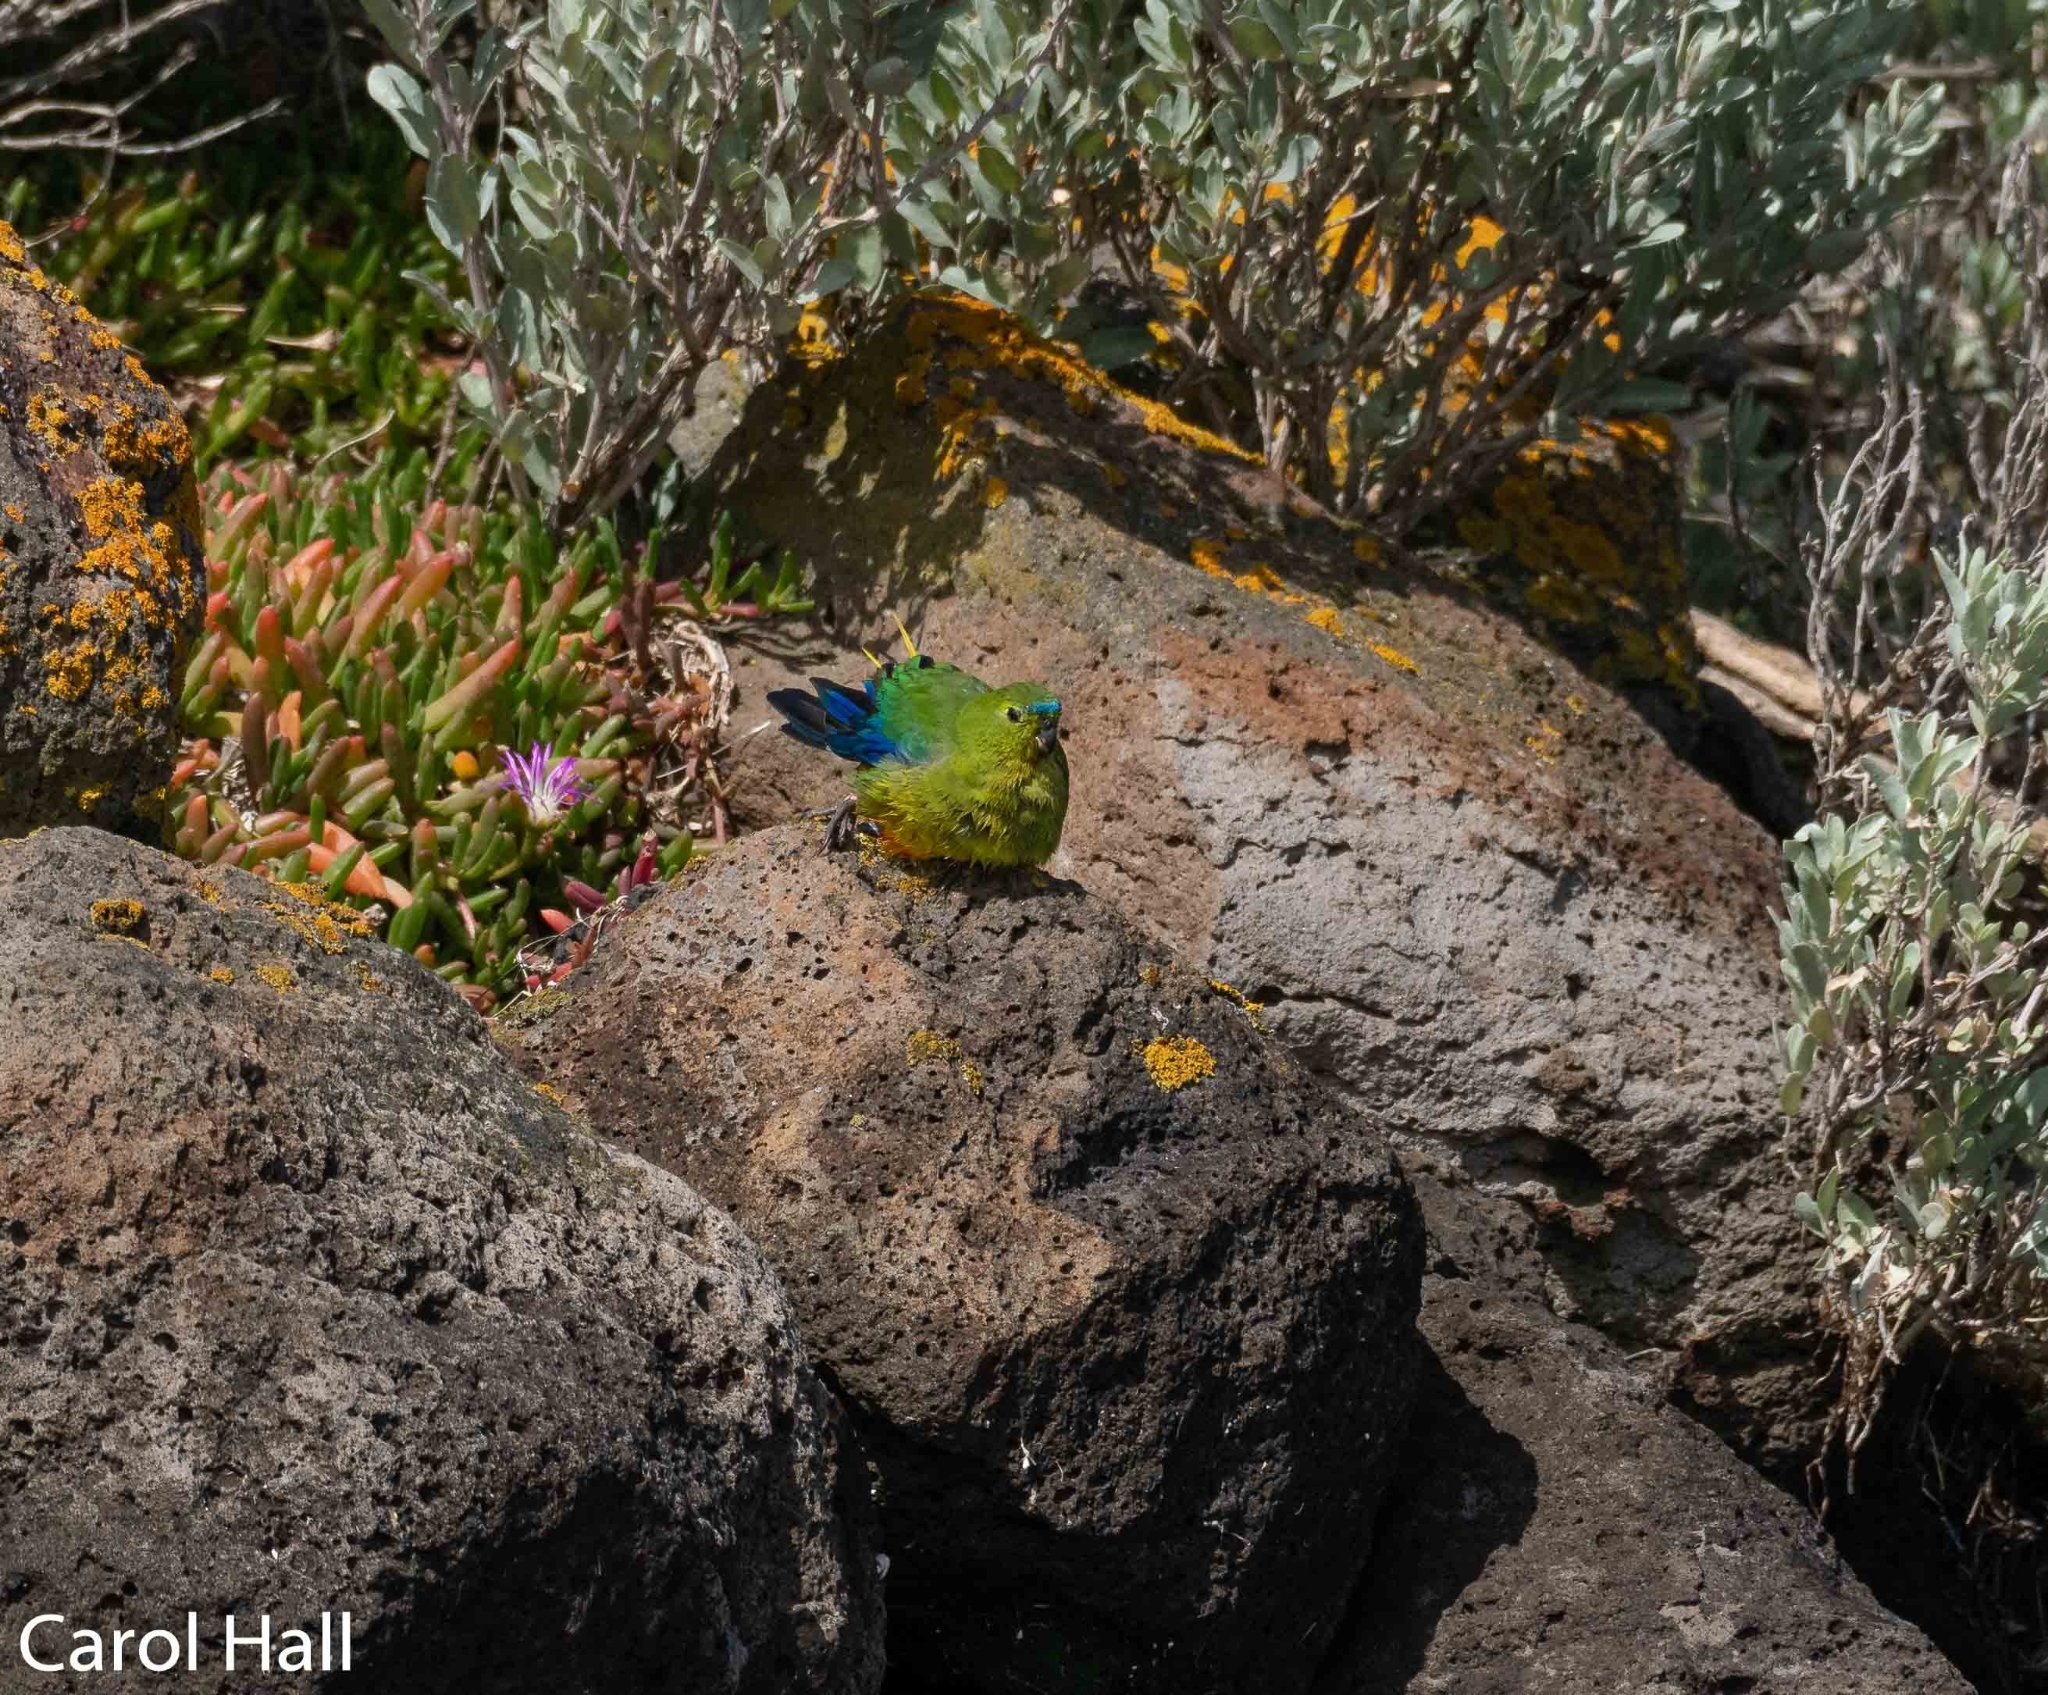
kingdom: Animalia
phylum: Chordata
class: Aves
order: Psittaciformes
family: Psittacidae
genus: Neophema
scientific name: Neophema chrysogaster
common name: Orange-bellied parrot
